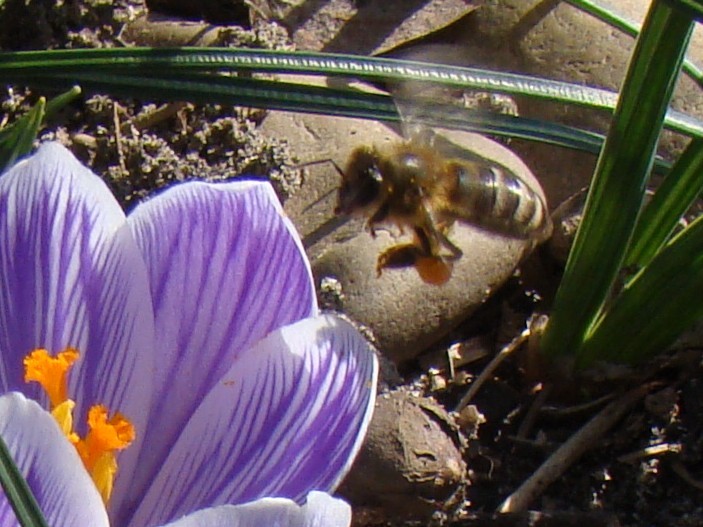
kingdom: Animalia
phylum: Arthropoda
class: Insecta
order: Hymenoptera
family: Apidae
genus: Apis
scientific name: Apis mellifera
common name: Honey bee
